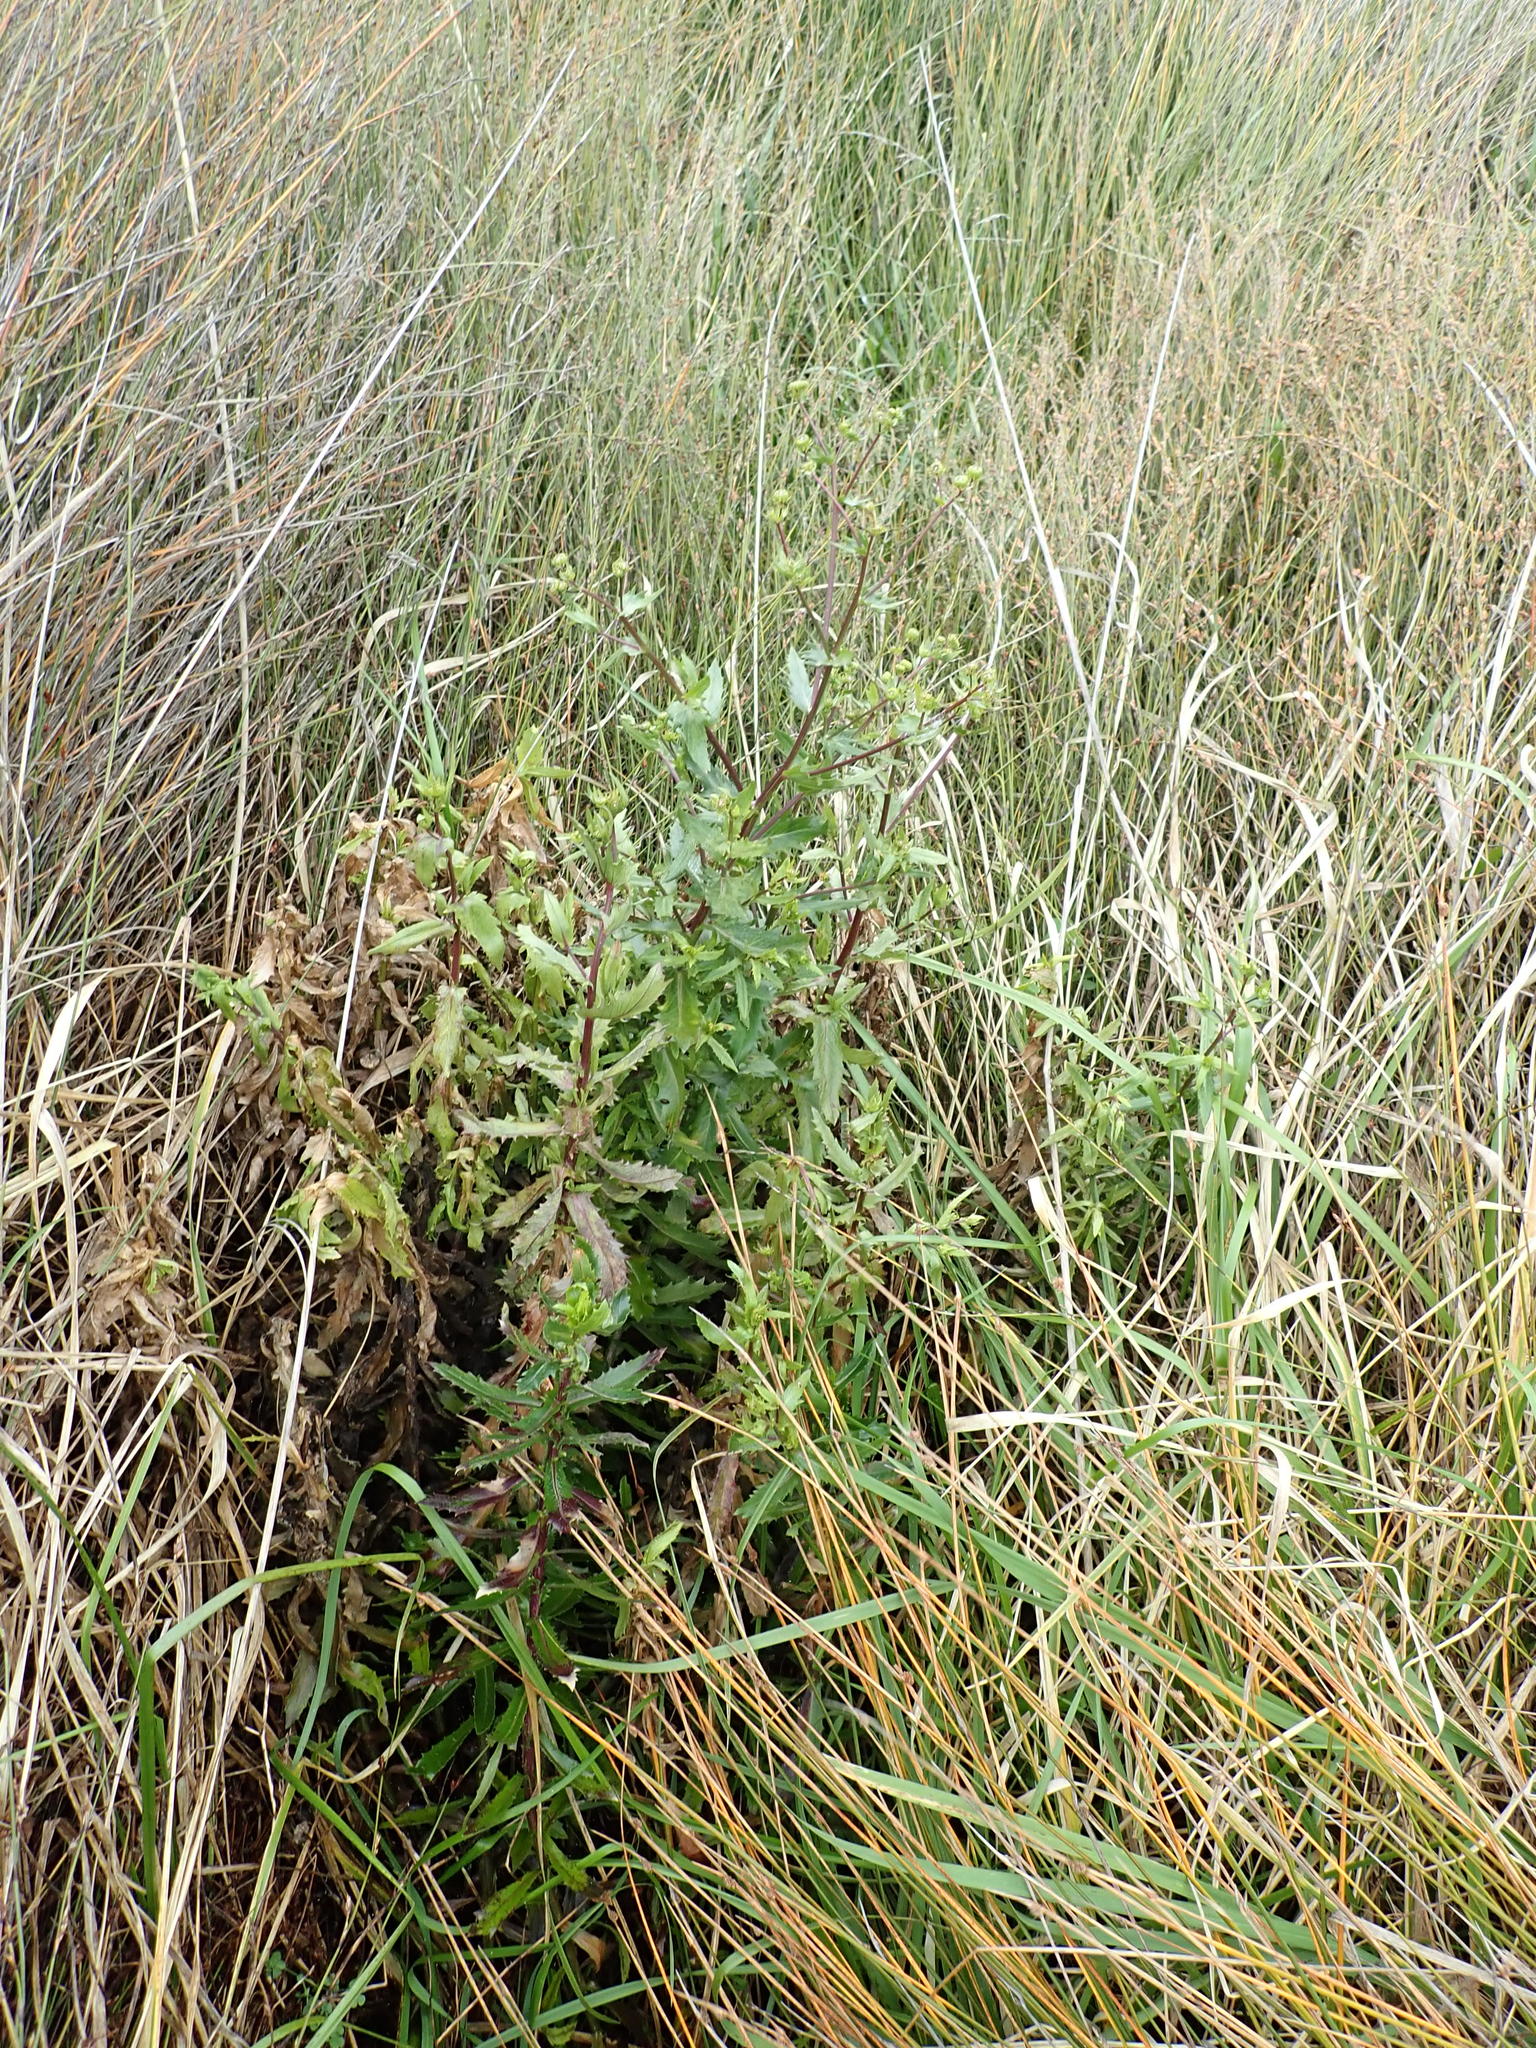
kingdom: Plantae
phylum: Tracheophyta
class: Magnoliopsida
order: Asterales
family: Asteraceae
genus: Senecio
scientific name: Senecio glastifolius
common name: Woad-leaved ragwort
